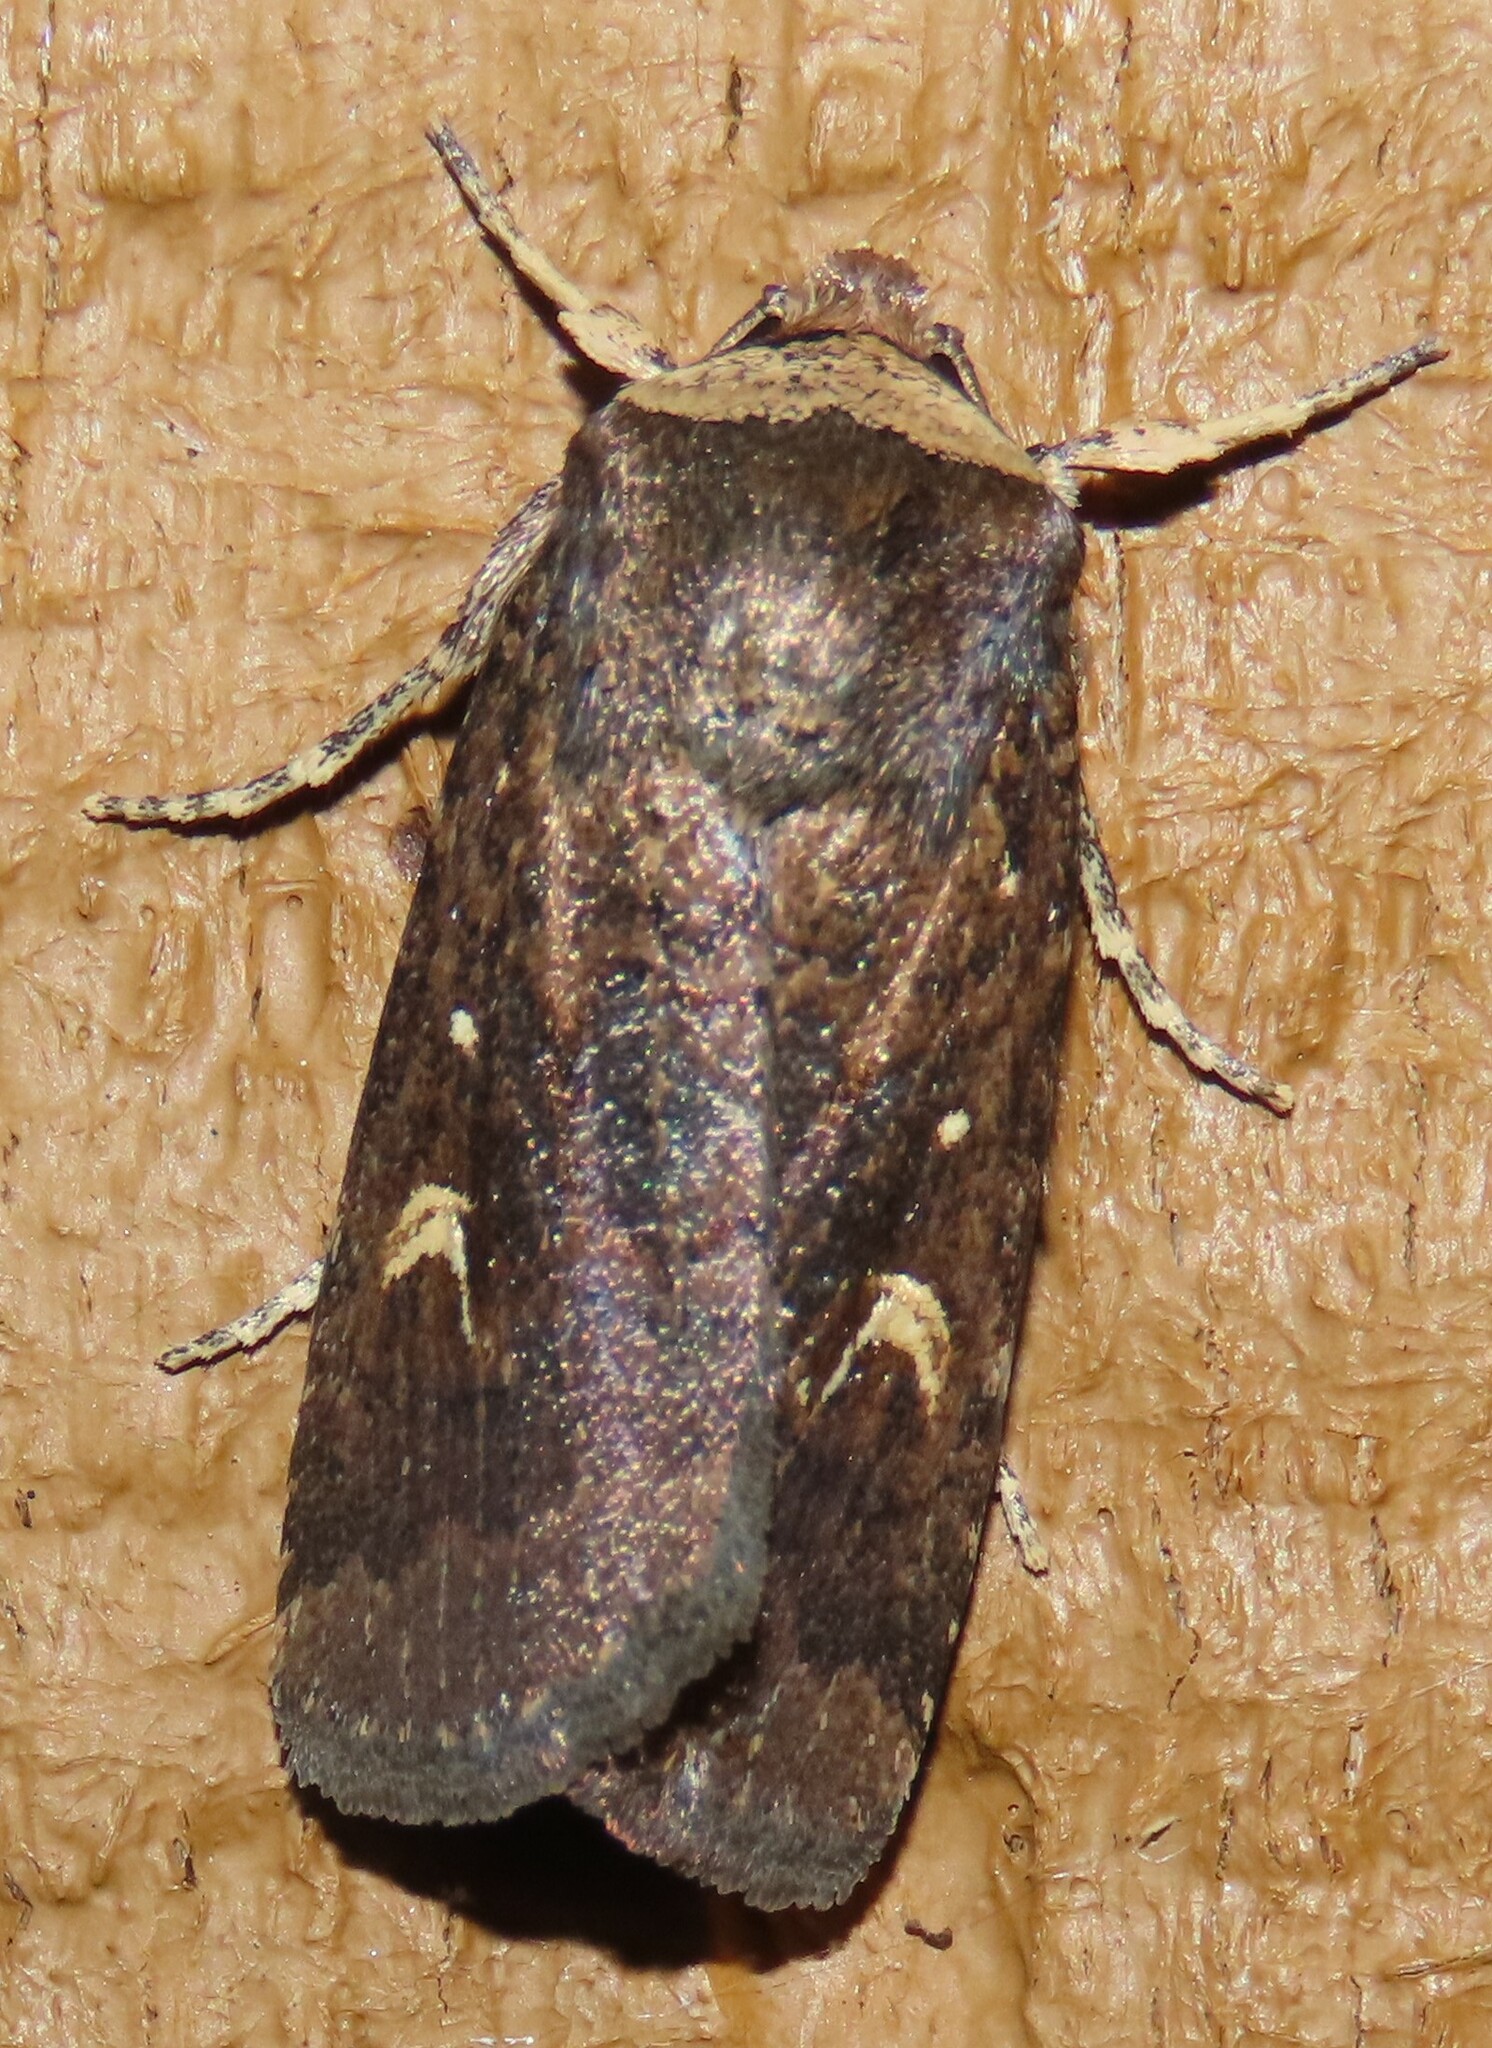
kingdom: Animalia
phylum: Arthropoda
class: Insecta
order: Lepidoptera
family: Noctuidae
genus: Proteuxoa
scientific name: Proteuxoa tetronycha
